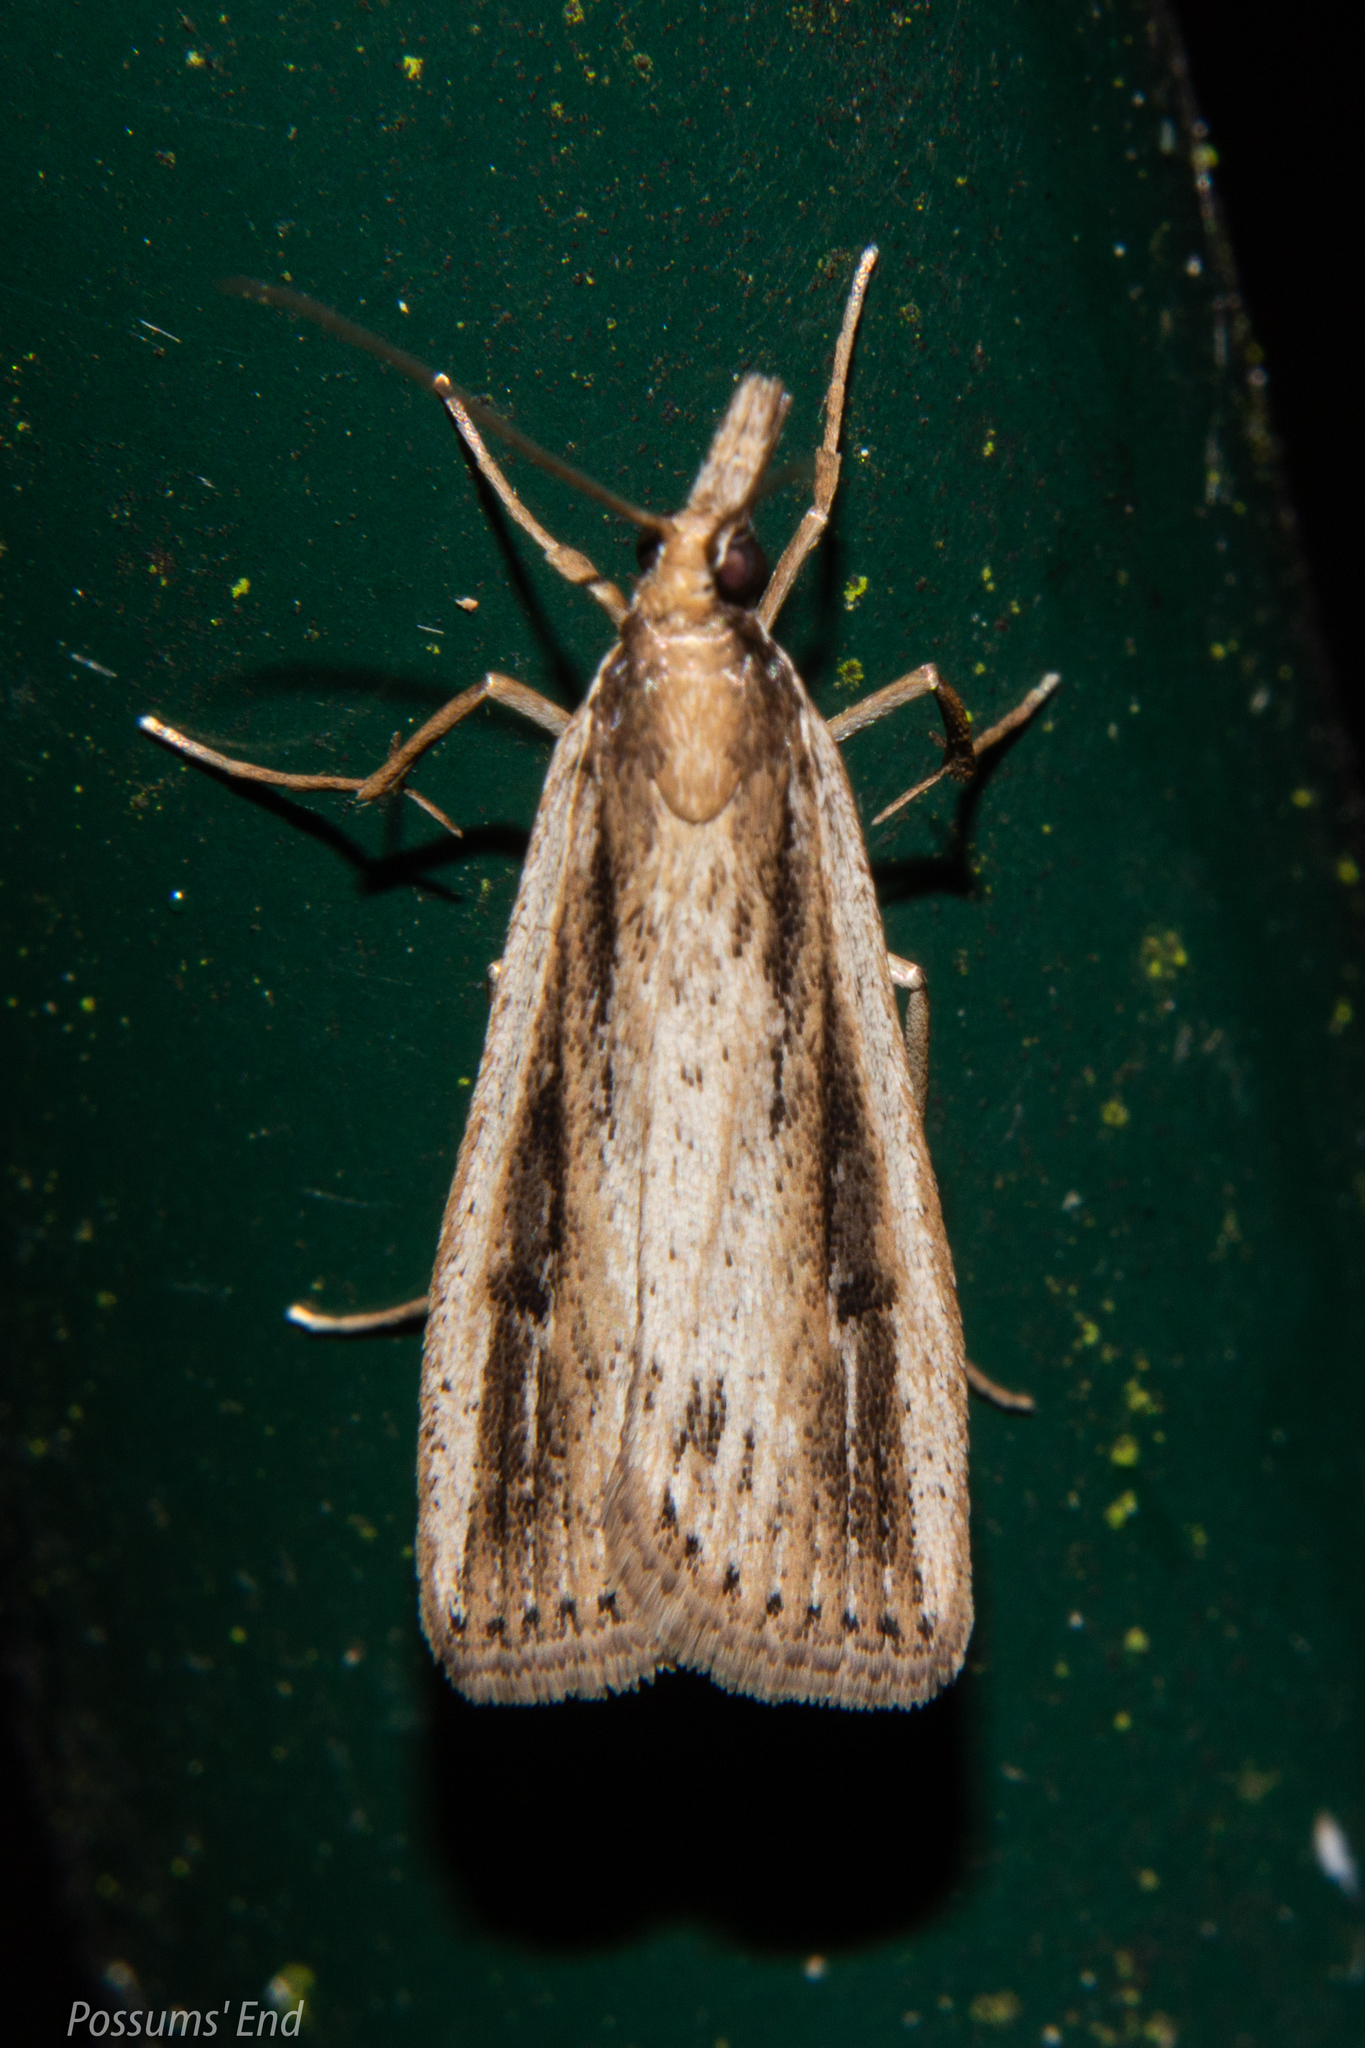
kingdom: Animalia
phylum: Arthropoda
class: Insecta
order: Lepidoptera
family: Crambidae
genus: Eudonia
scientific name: Eudonia sabulosella
